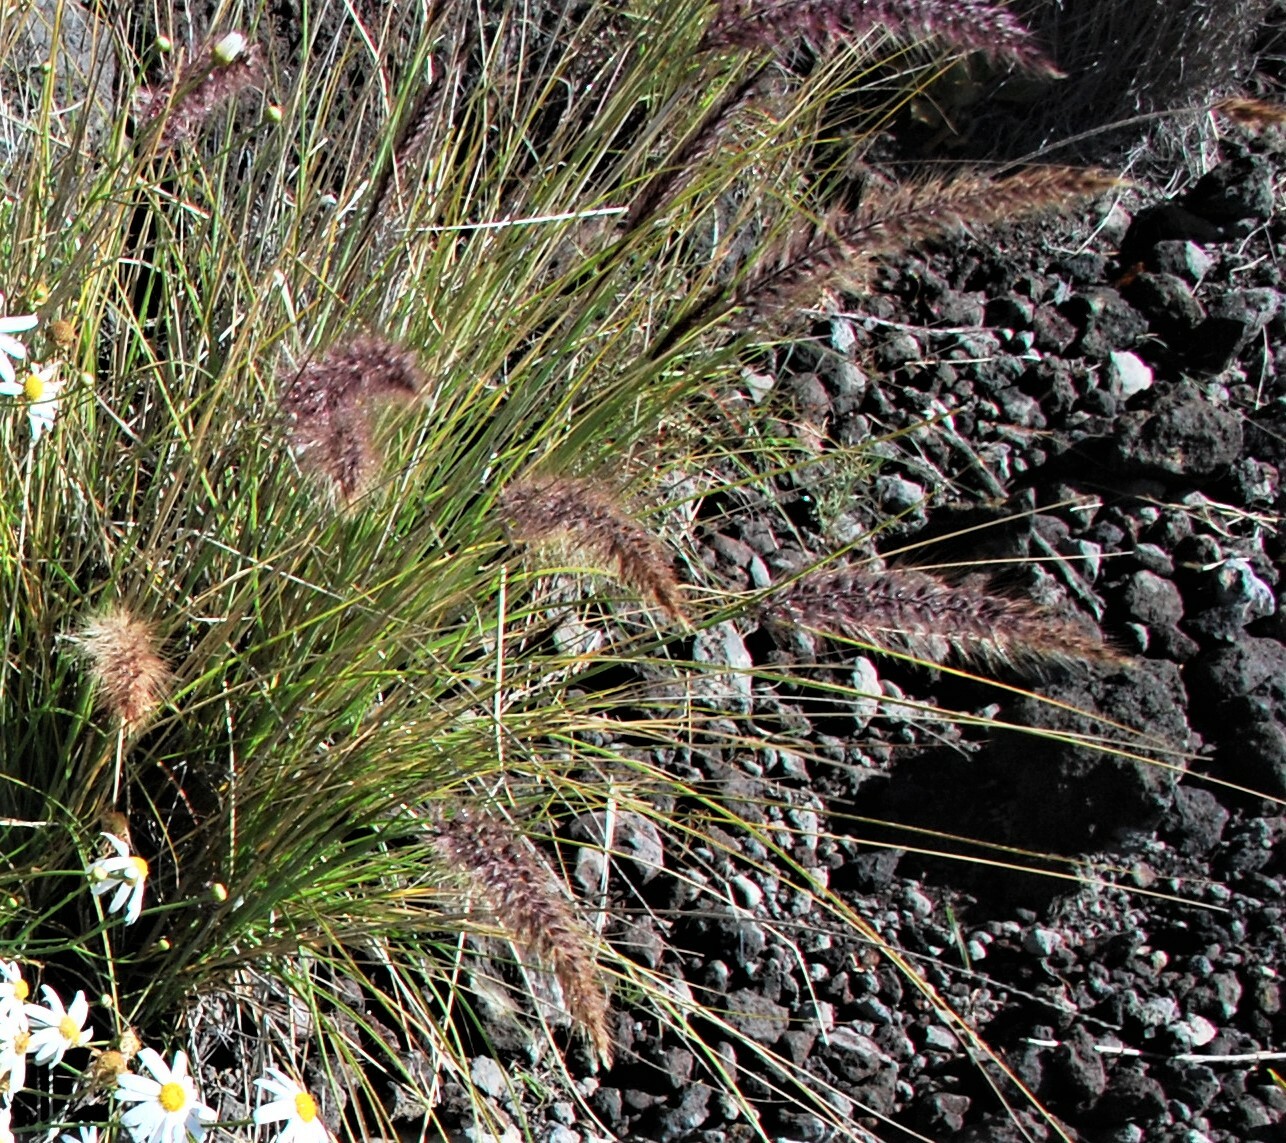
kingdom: Plantae
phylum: Tracheophyta
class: Liliopsida
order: Poales
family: Poaceae
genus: Cenchrus
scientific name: Cenchrus setaceus
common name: Crimson fountaingrass
